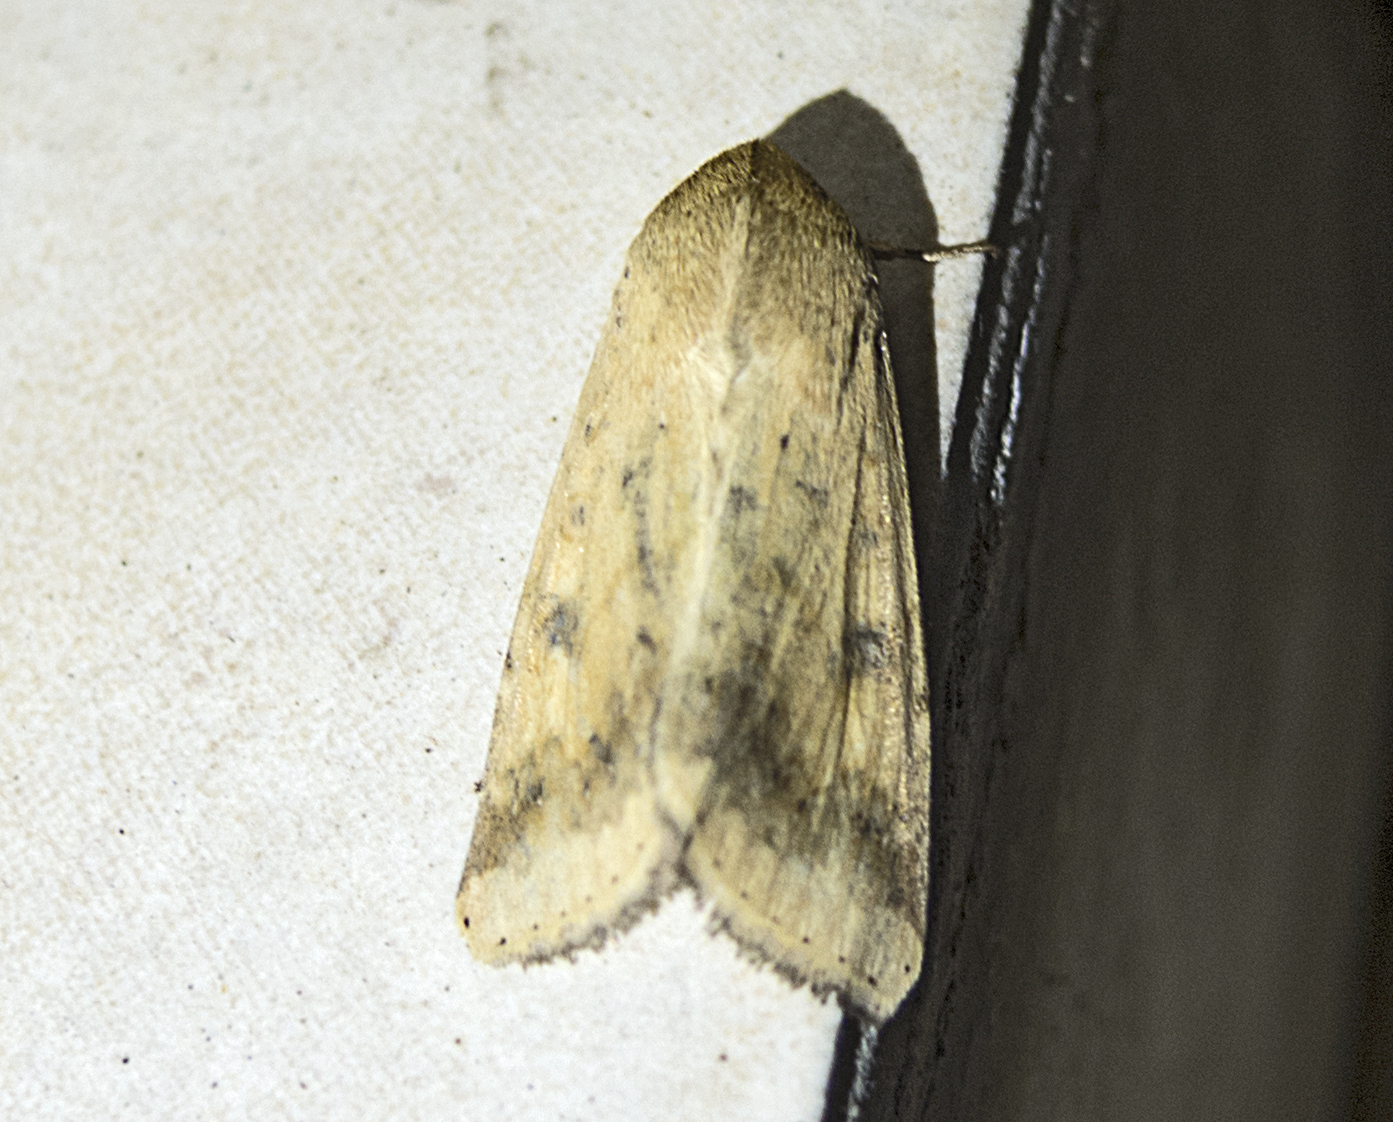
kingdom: Animalia
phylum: Arthropoda
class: Insecta
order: Lepidoptera
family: Noctuidae
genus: Helicoverpa
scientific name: Helicoverpa armigera
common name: Cotton bollworm
